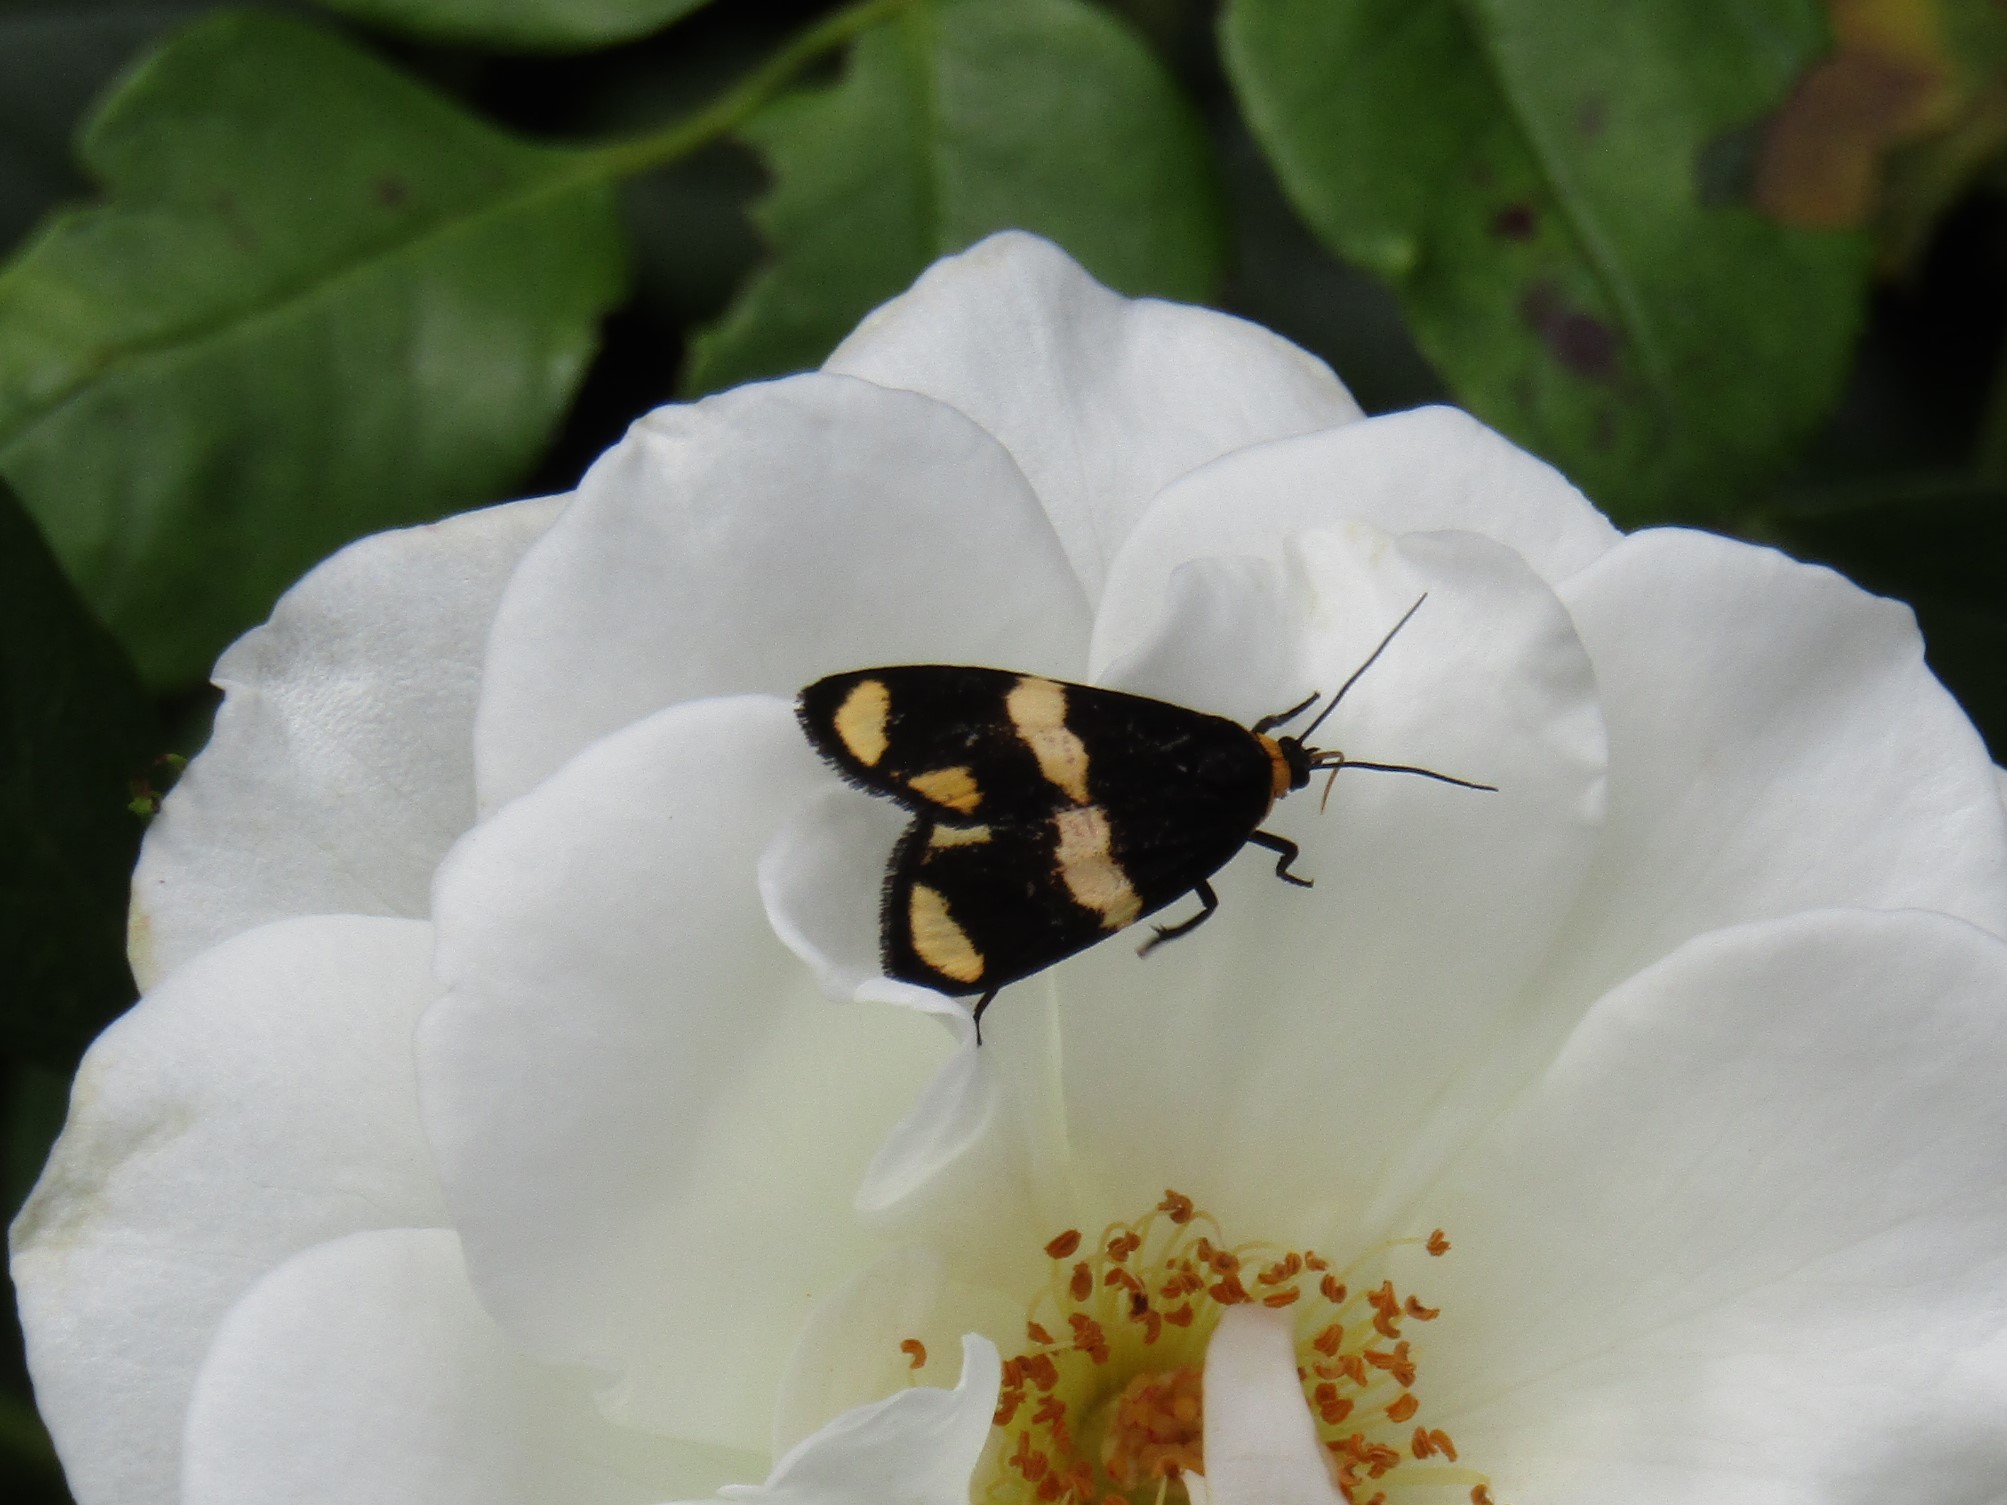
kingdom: Animalia
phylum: Arthropoda
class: Insecta
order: Lepidoptera
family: Erebidae
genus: Eudesmia
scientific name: Eudesmia
